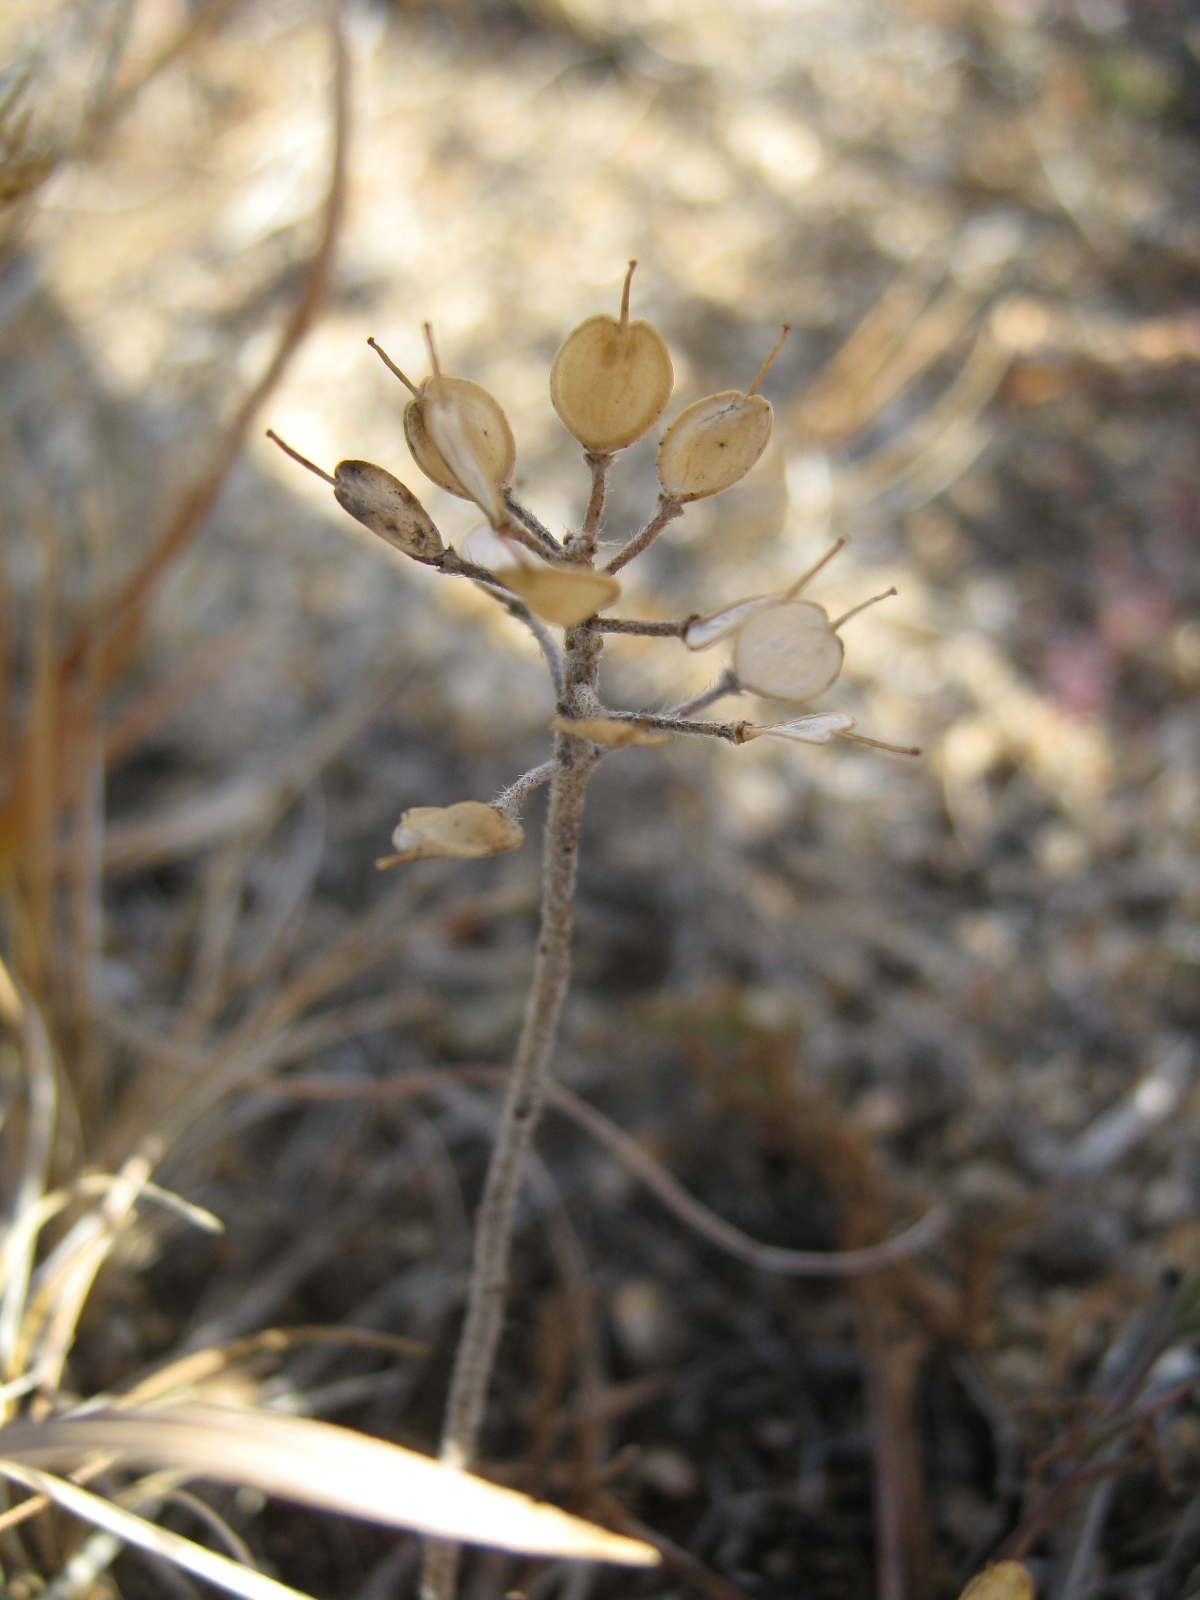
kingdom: Plantae
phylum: Tracheophyta
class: Magnoliopsida
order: Brassicales
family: Brassicaceae
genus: Alyssum
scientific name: Alyssum lenense
